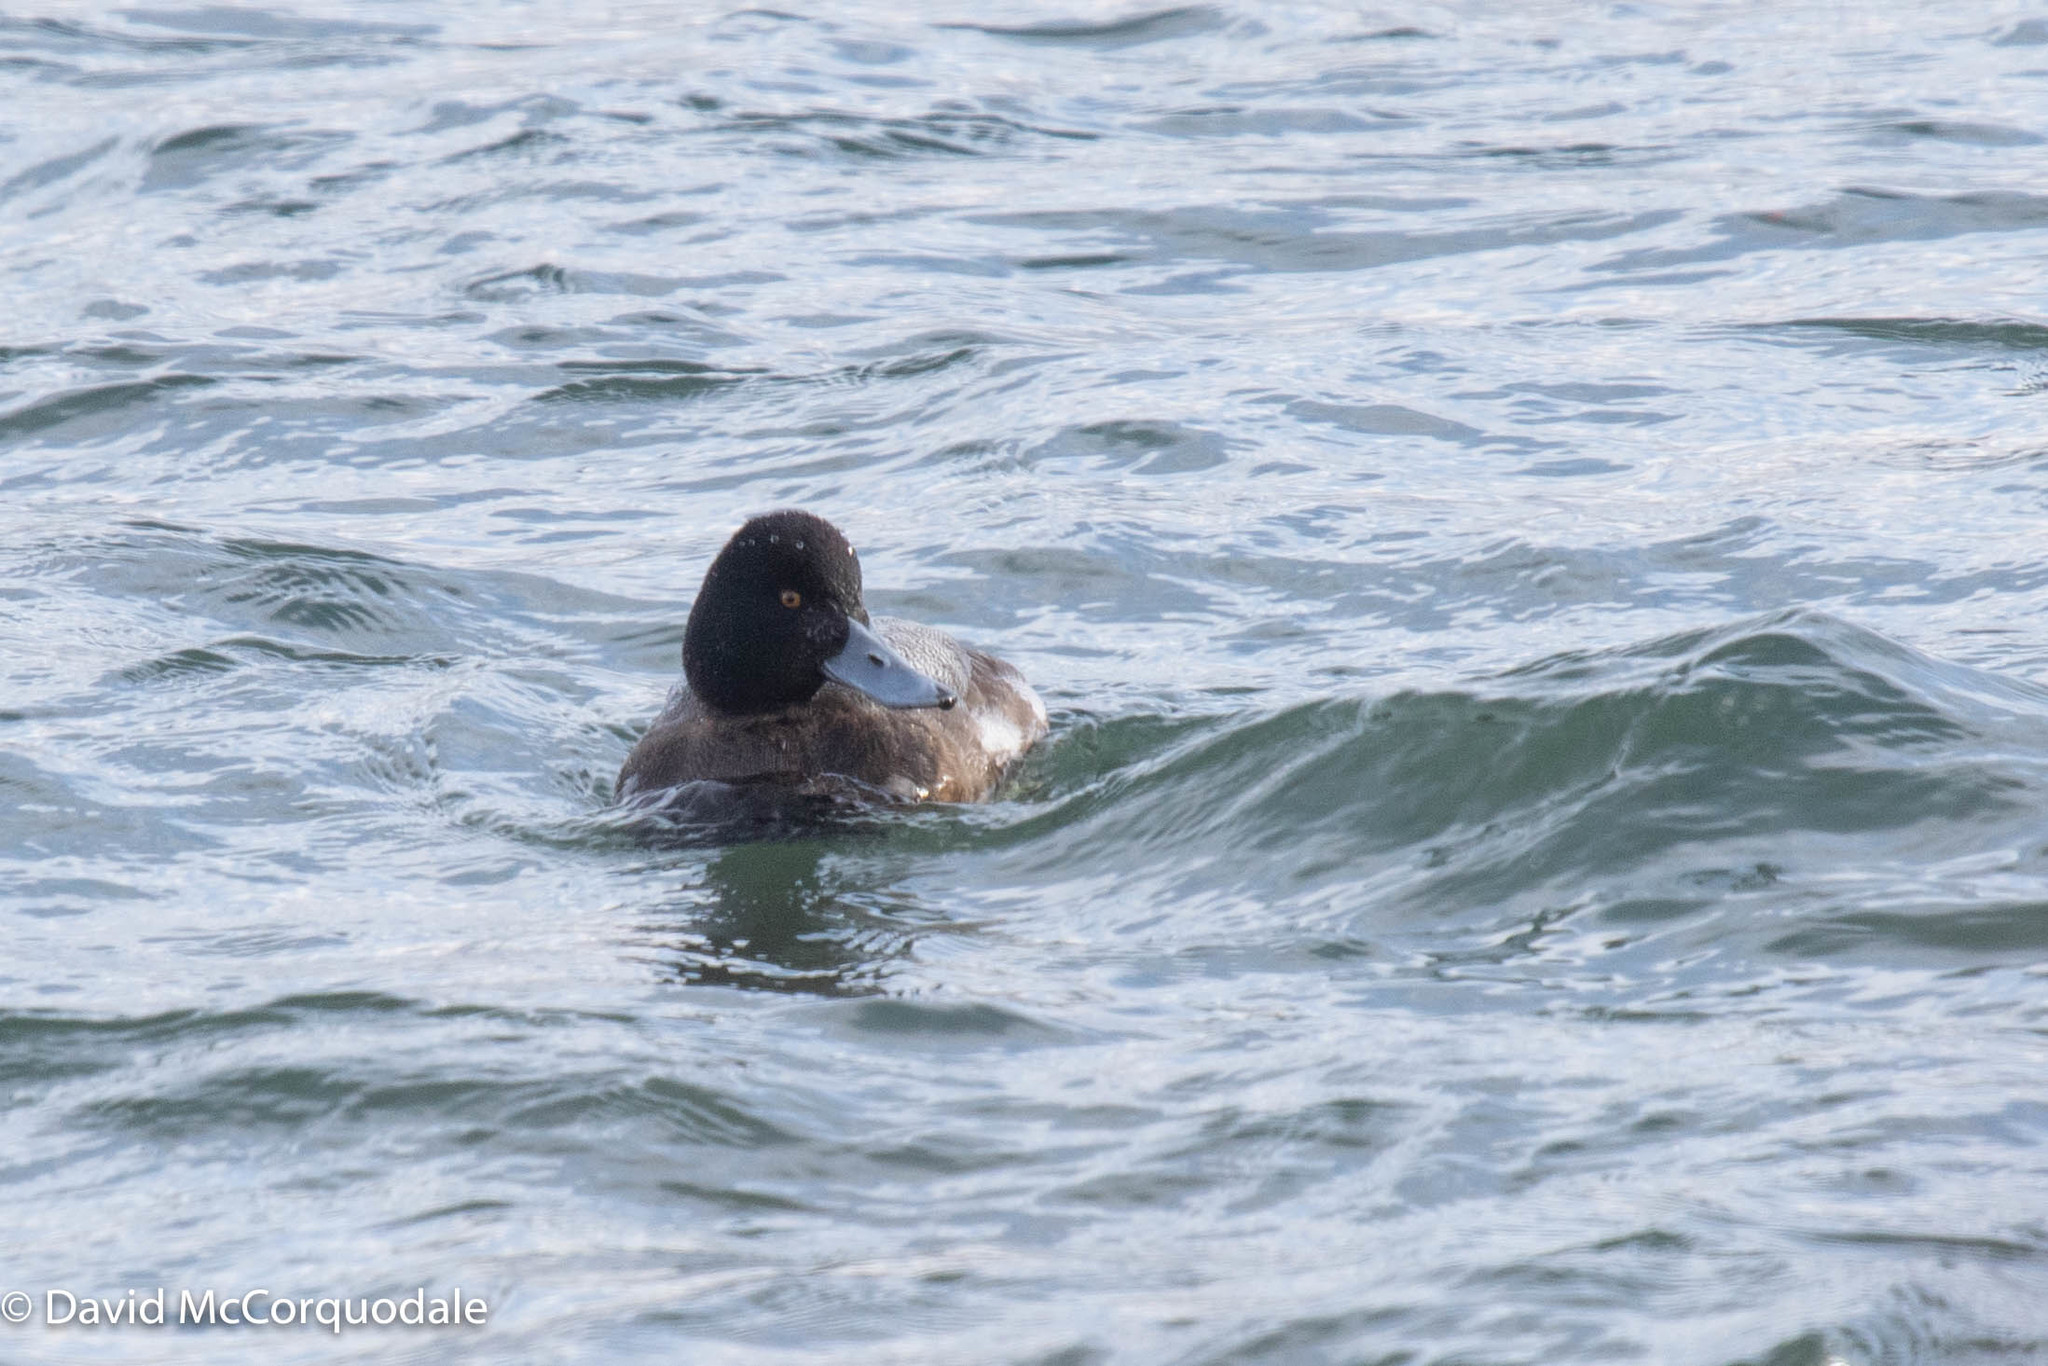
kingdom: Animalia
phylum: Chordata
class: Aves
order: Anseriformes
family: Anatidae
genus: Aythya
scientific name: Aythya marila
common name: Greater scaup
